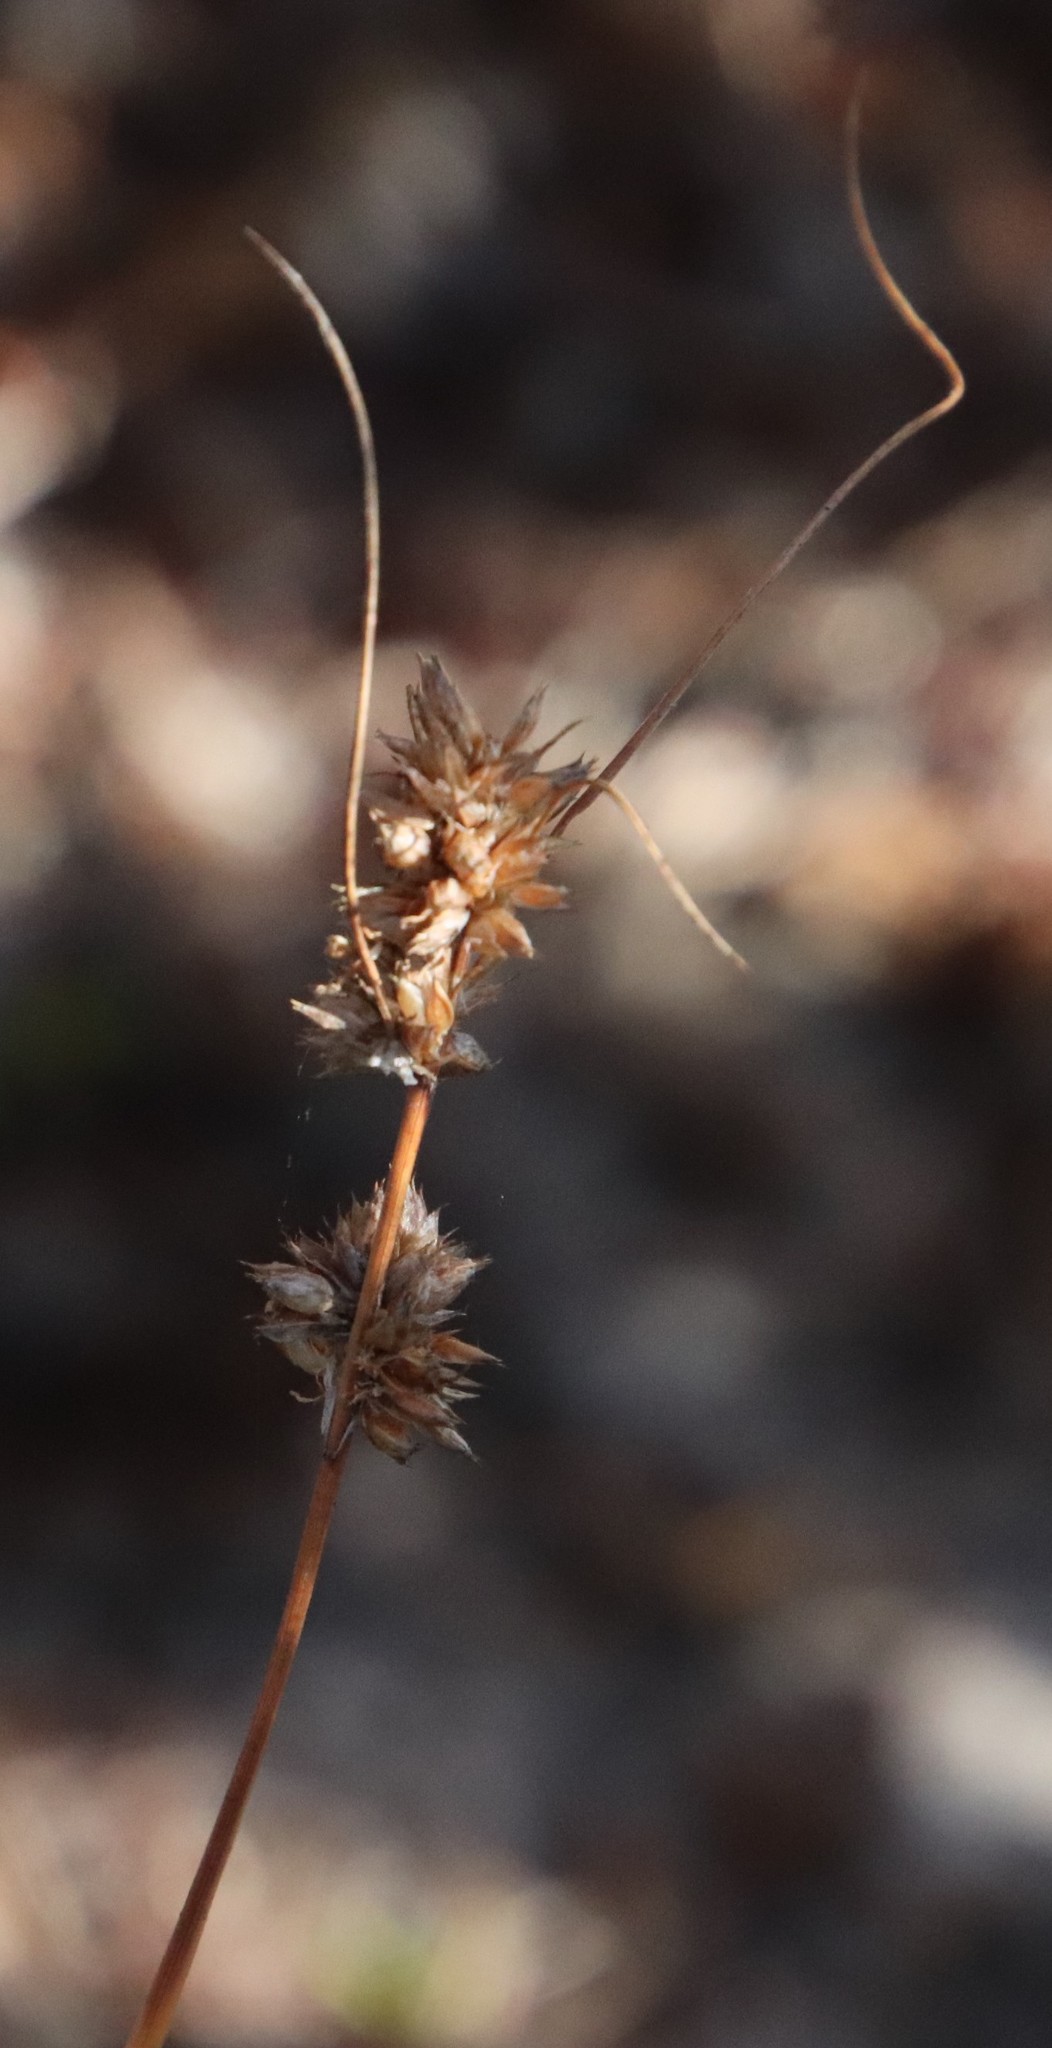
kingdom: Plantae
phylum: Tracheophyta
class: Liliopsida
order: Poales
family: Cyperaceae
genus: Ficinia
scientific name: Ficinia bulbosa
